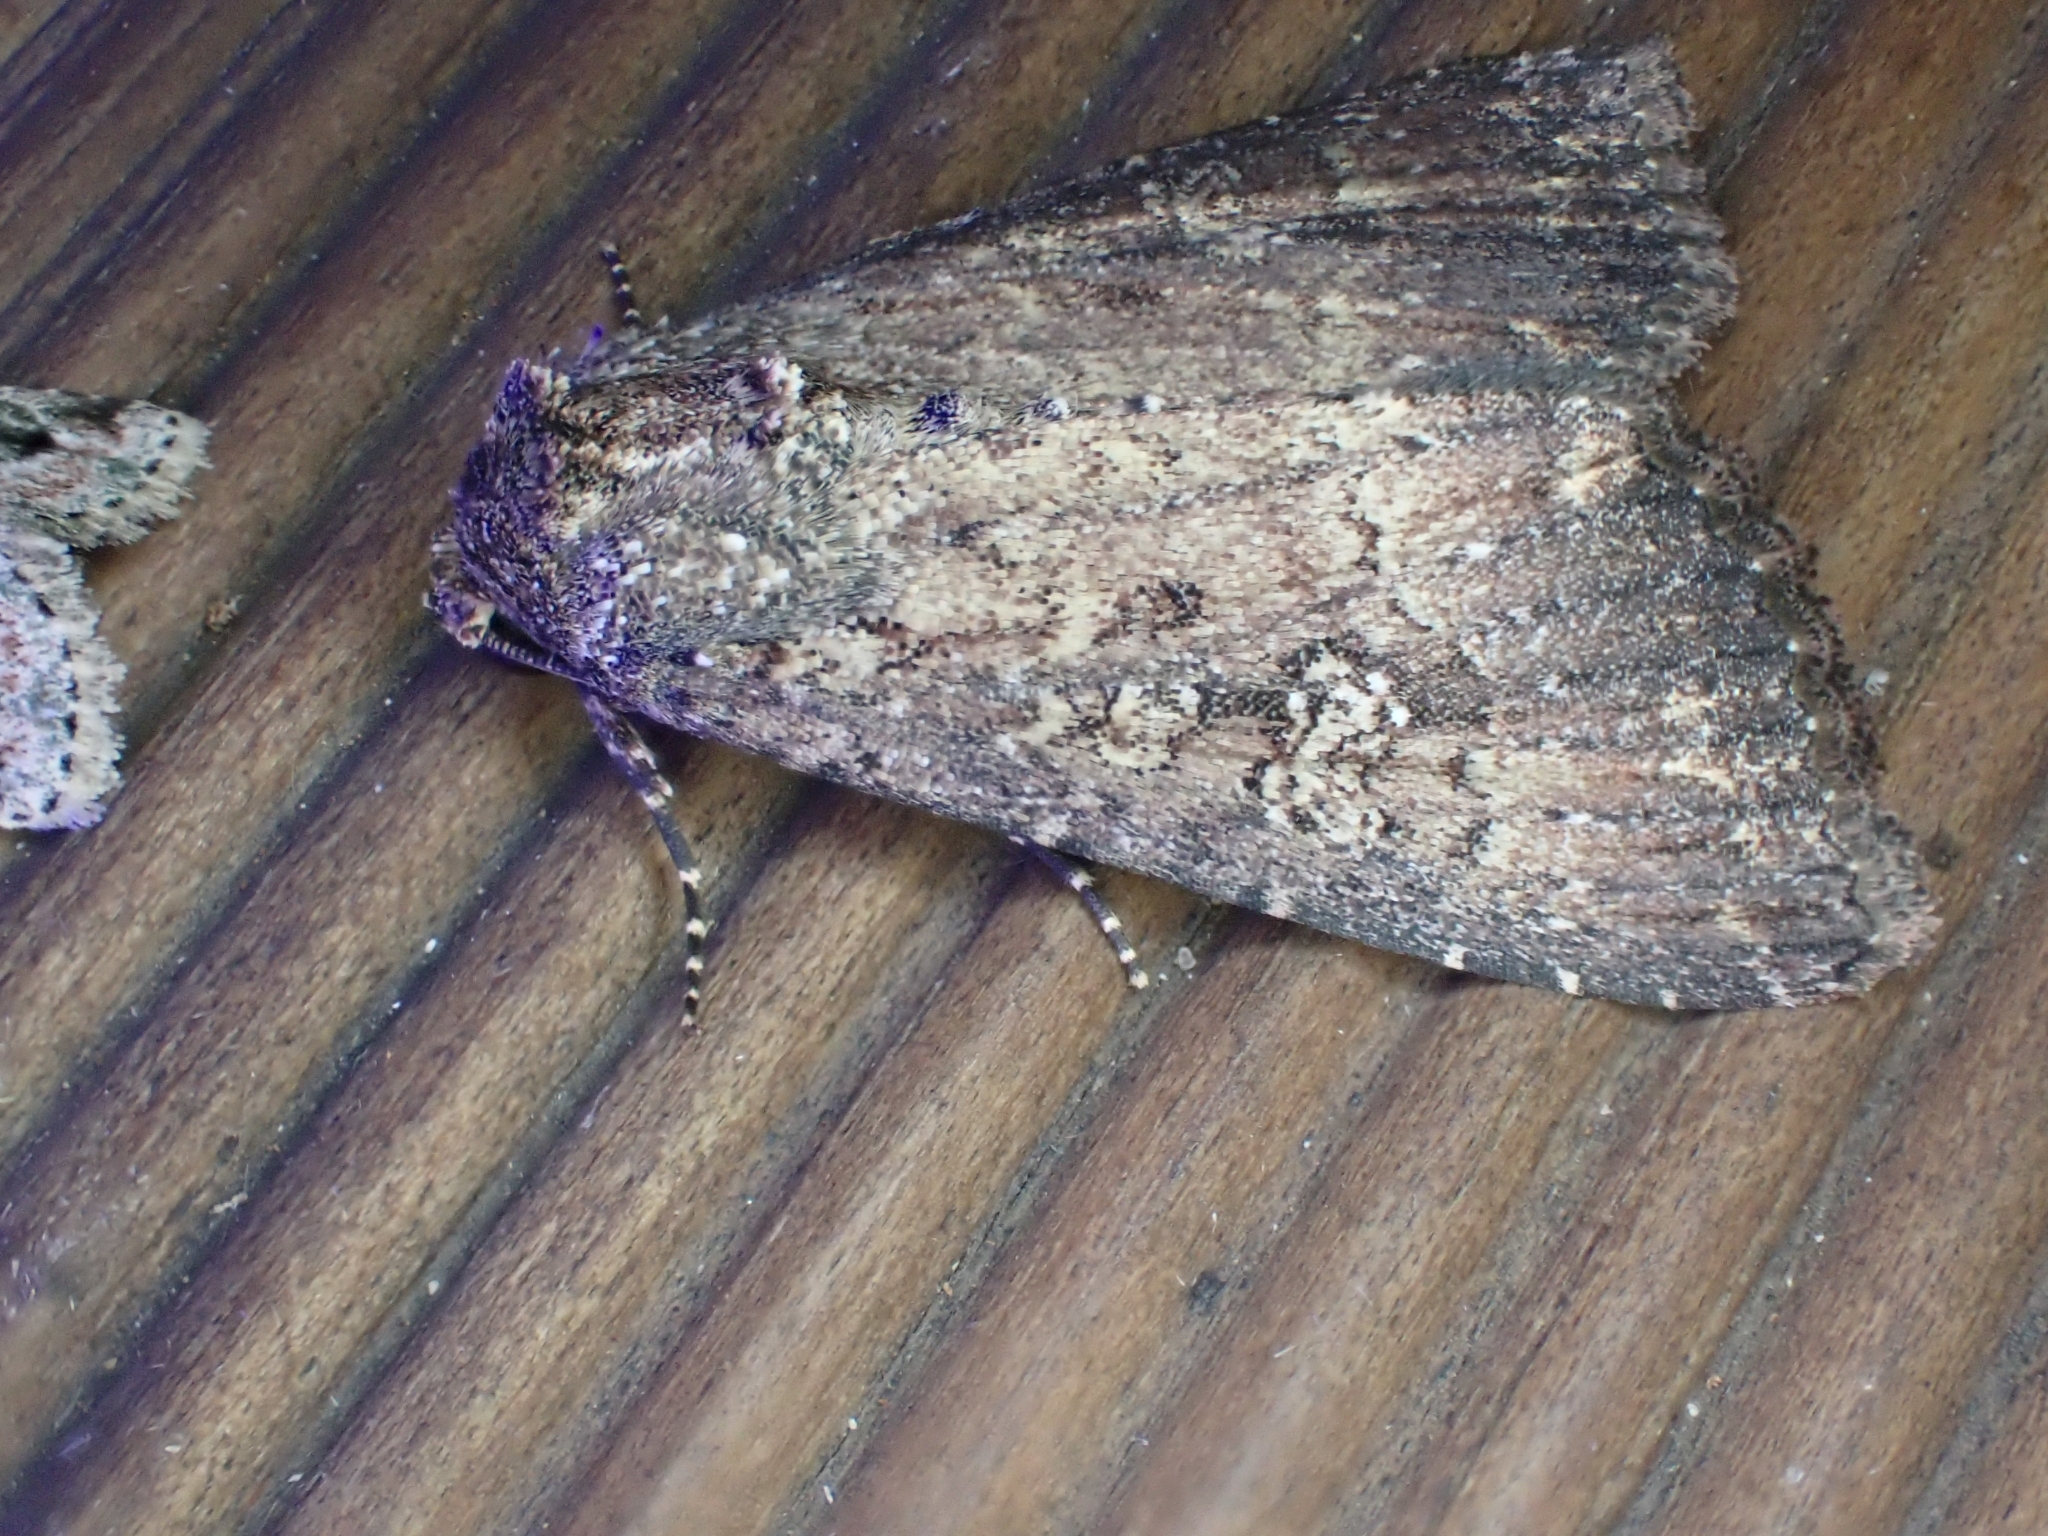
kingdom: Animalia
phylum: Arthropoda
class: Insecta
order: Lepidoptera
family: Noctuidae
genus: Condica
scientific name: Condica capensis
